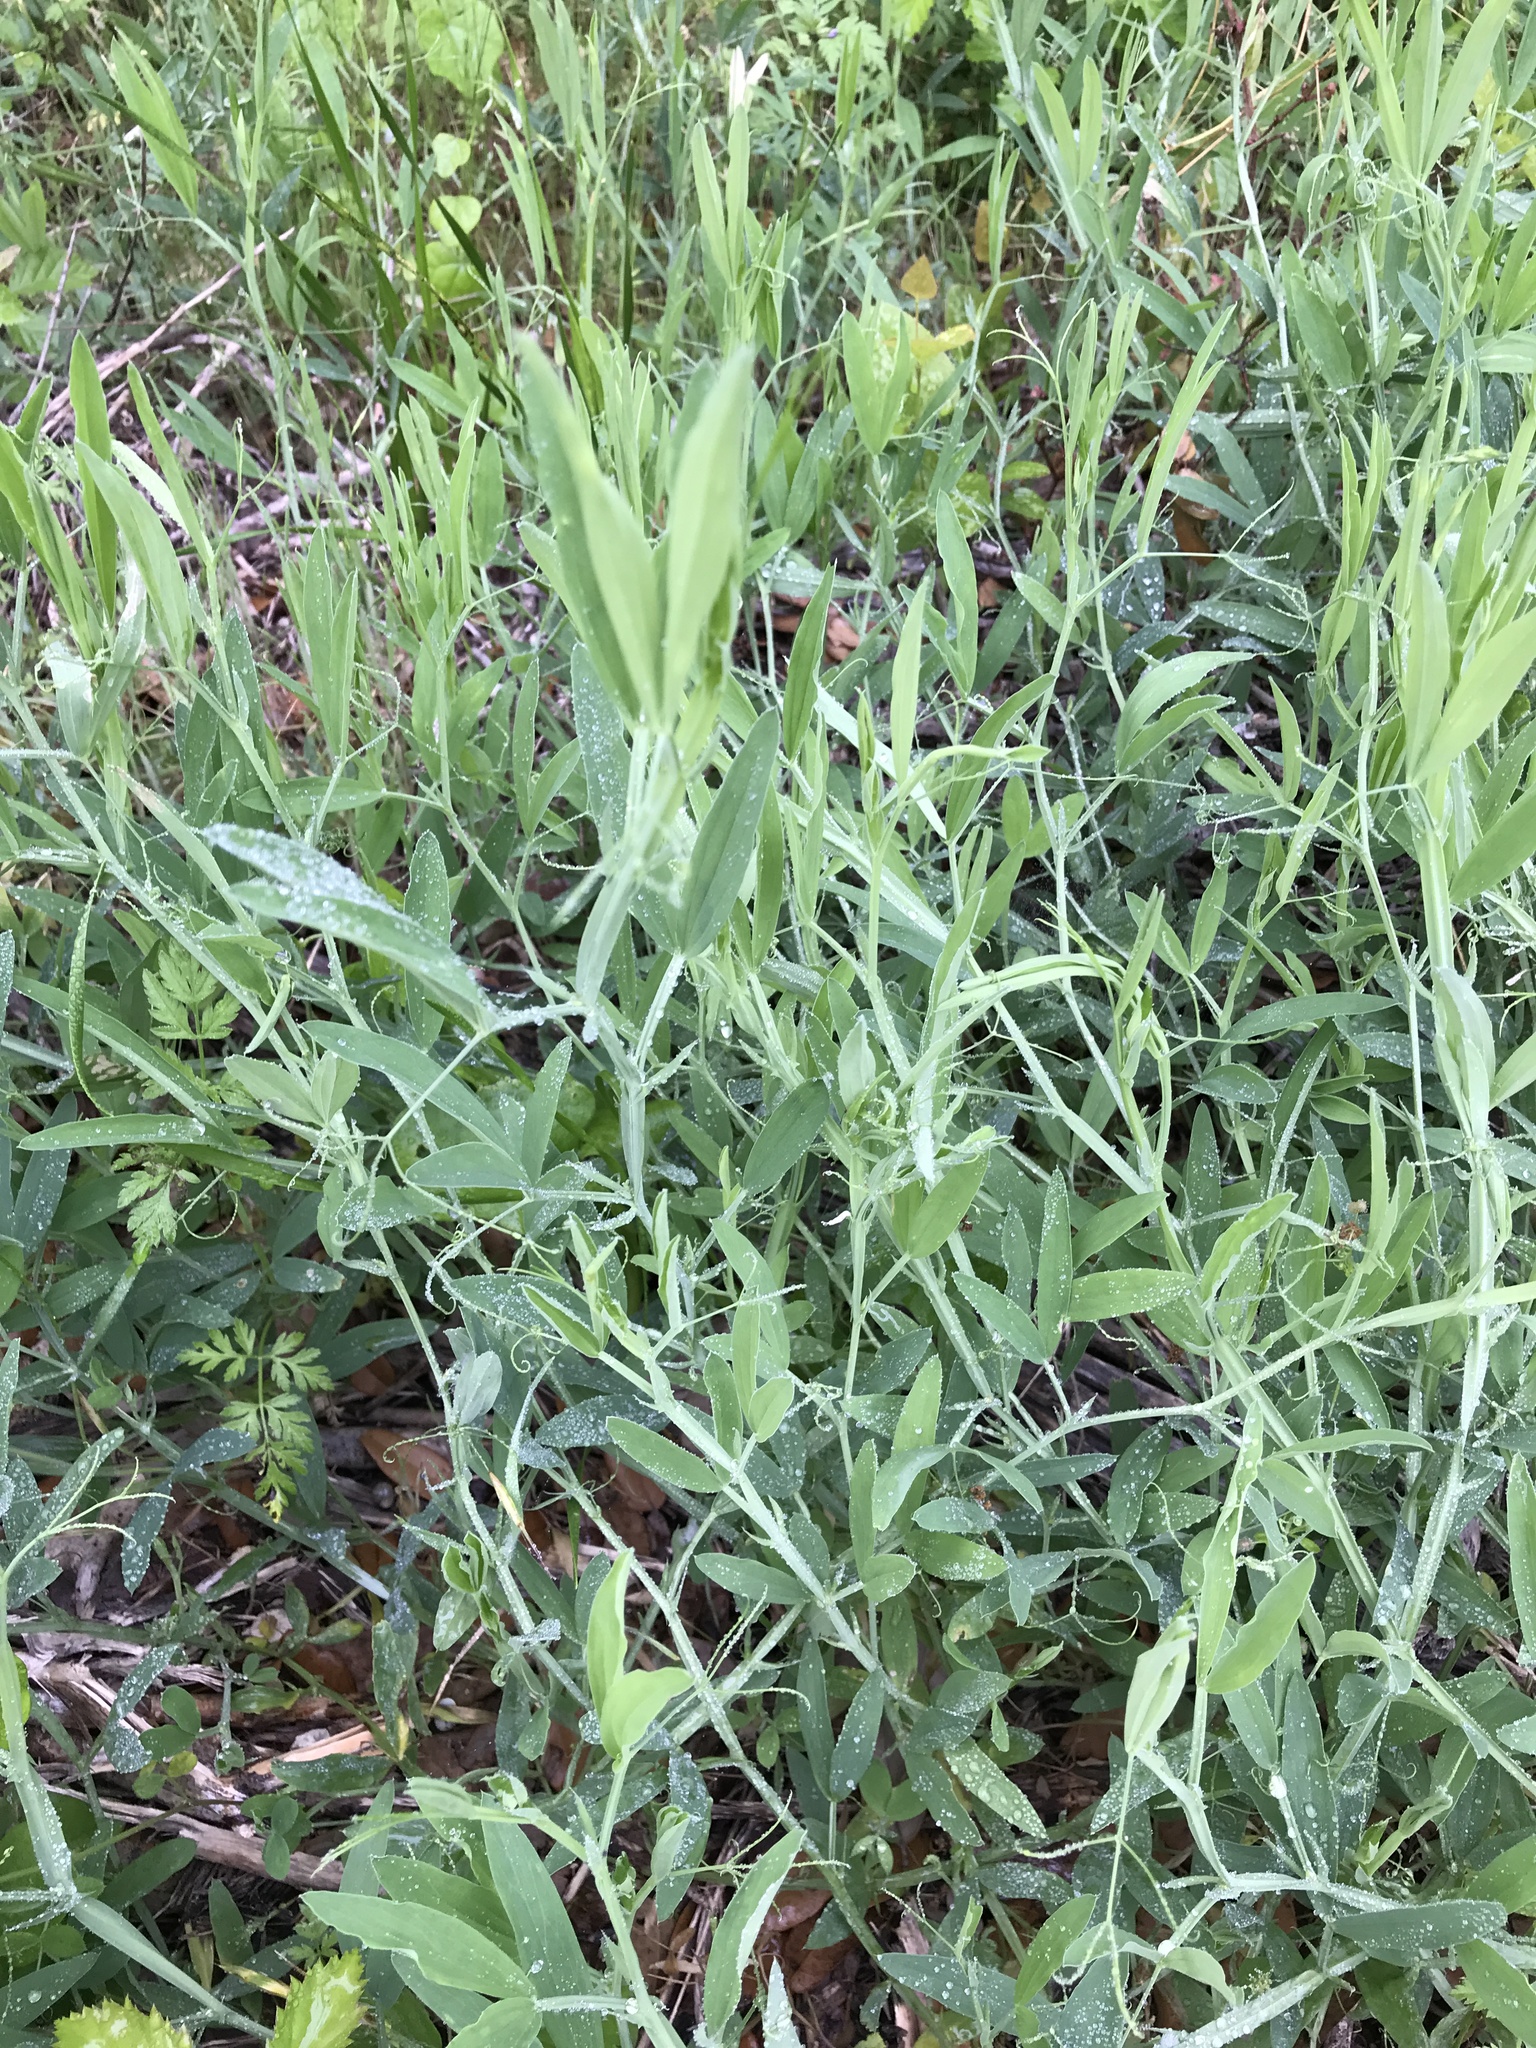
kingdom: Plantae
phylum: Tracheophyta
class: Magnoliopsida
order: Fabales
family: Fabaceae
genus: Lathyrus
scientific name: Lathyrus hirsutus
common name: Hairy vetchling
